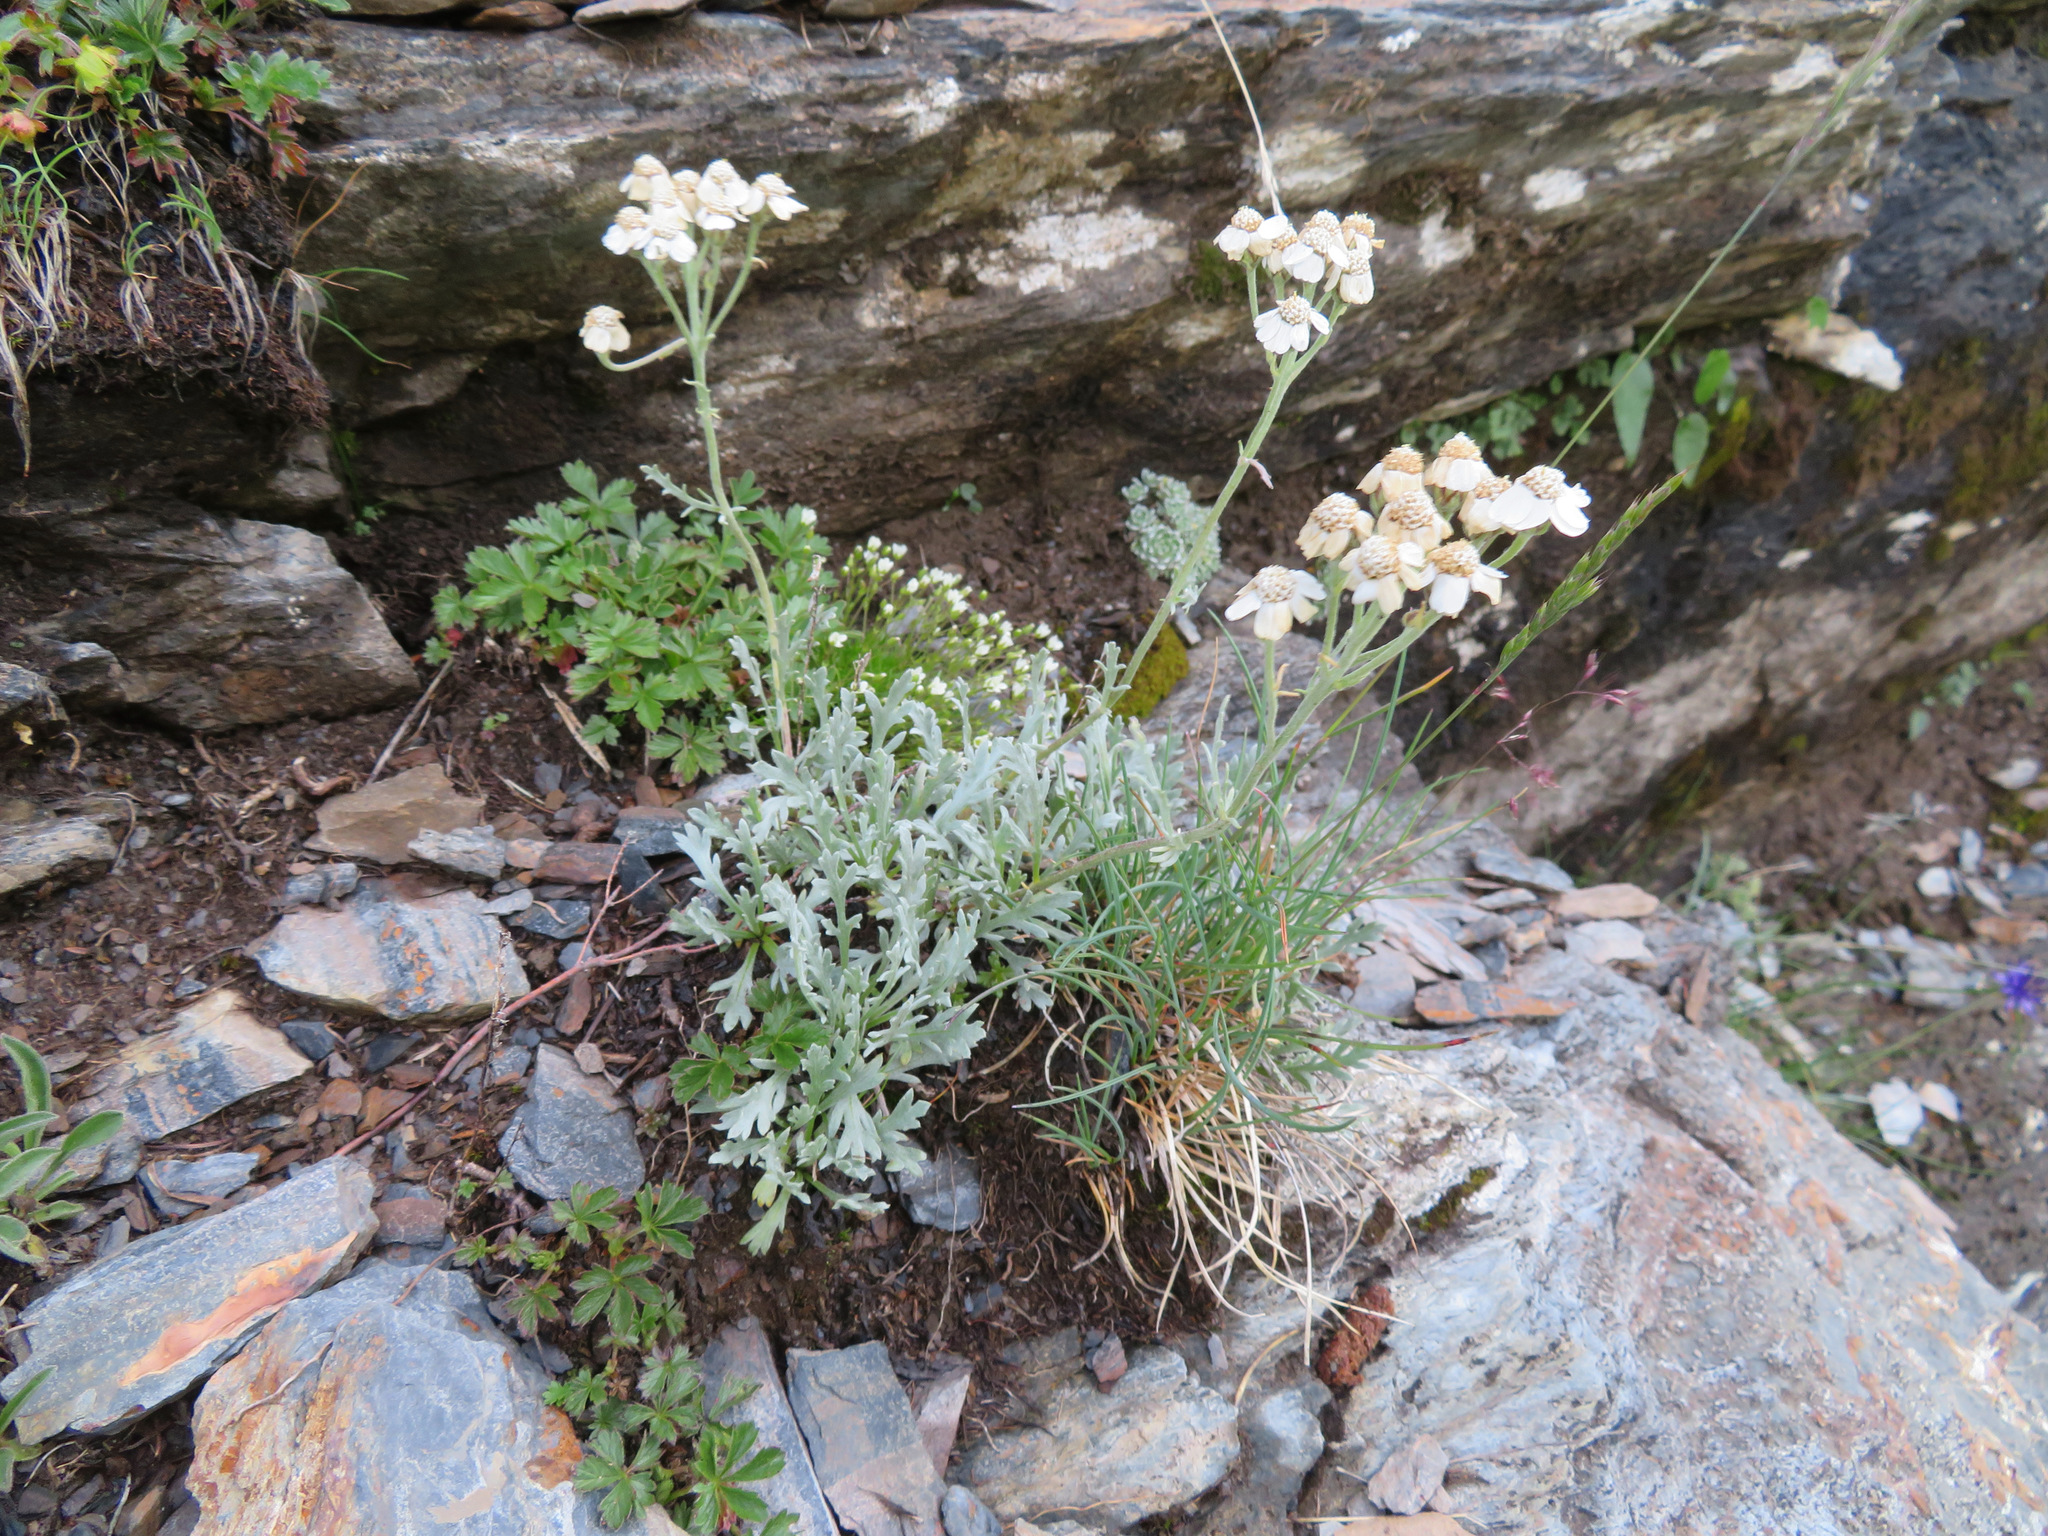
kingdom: Plantae
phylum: Tracheophyta
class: Magnoliopsida
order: Asterales
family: Asteraceae
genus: Achillea
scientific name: Achillea clavennae
